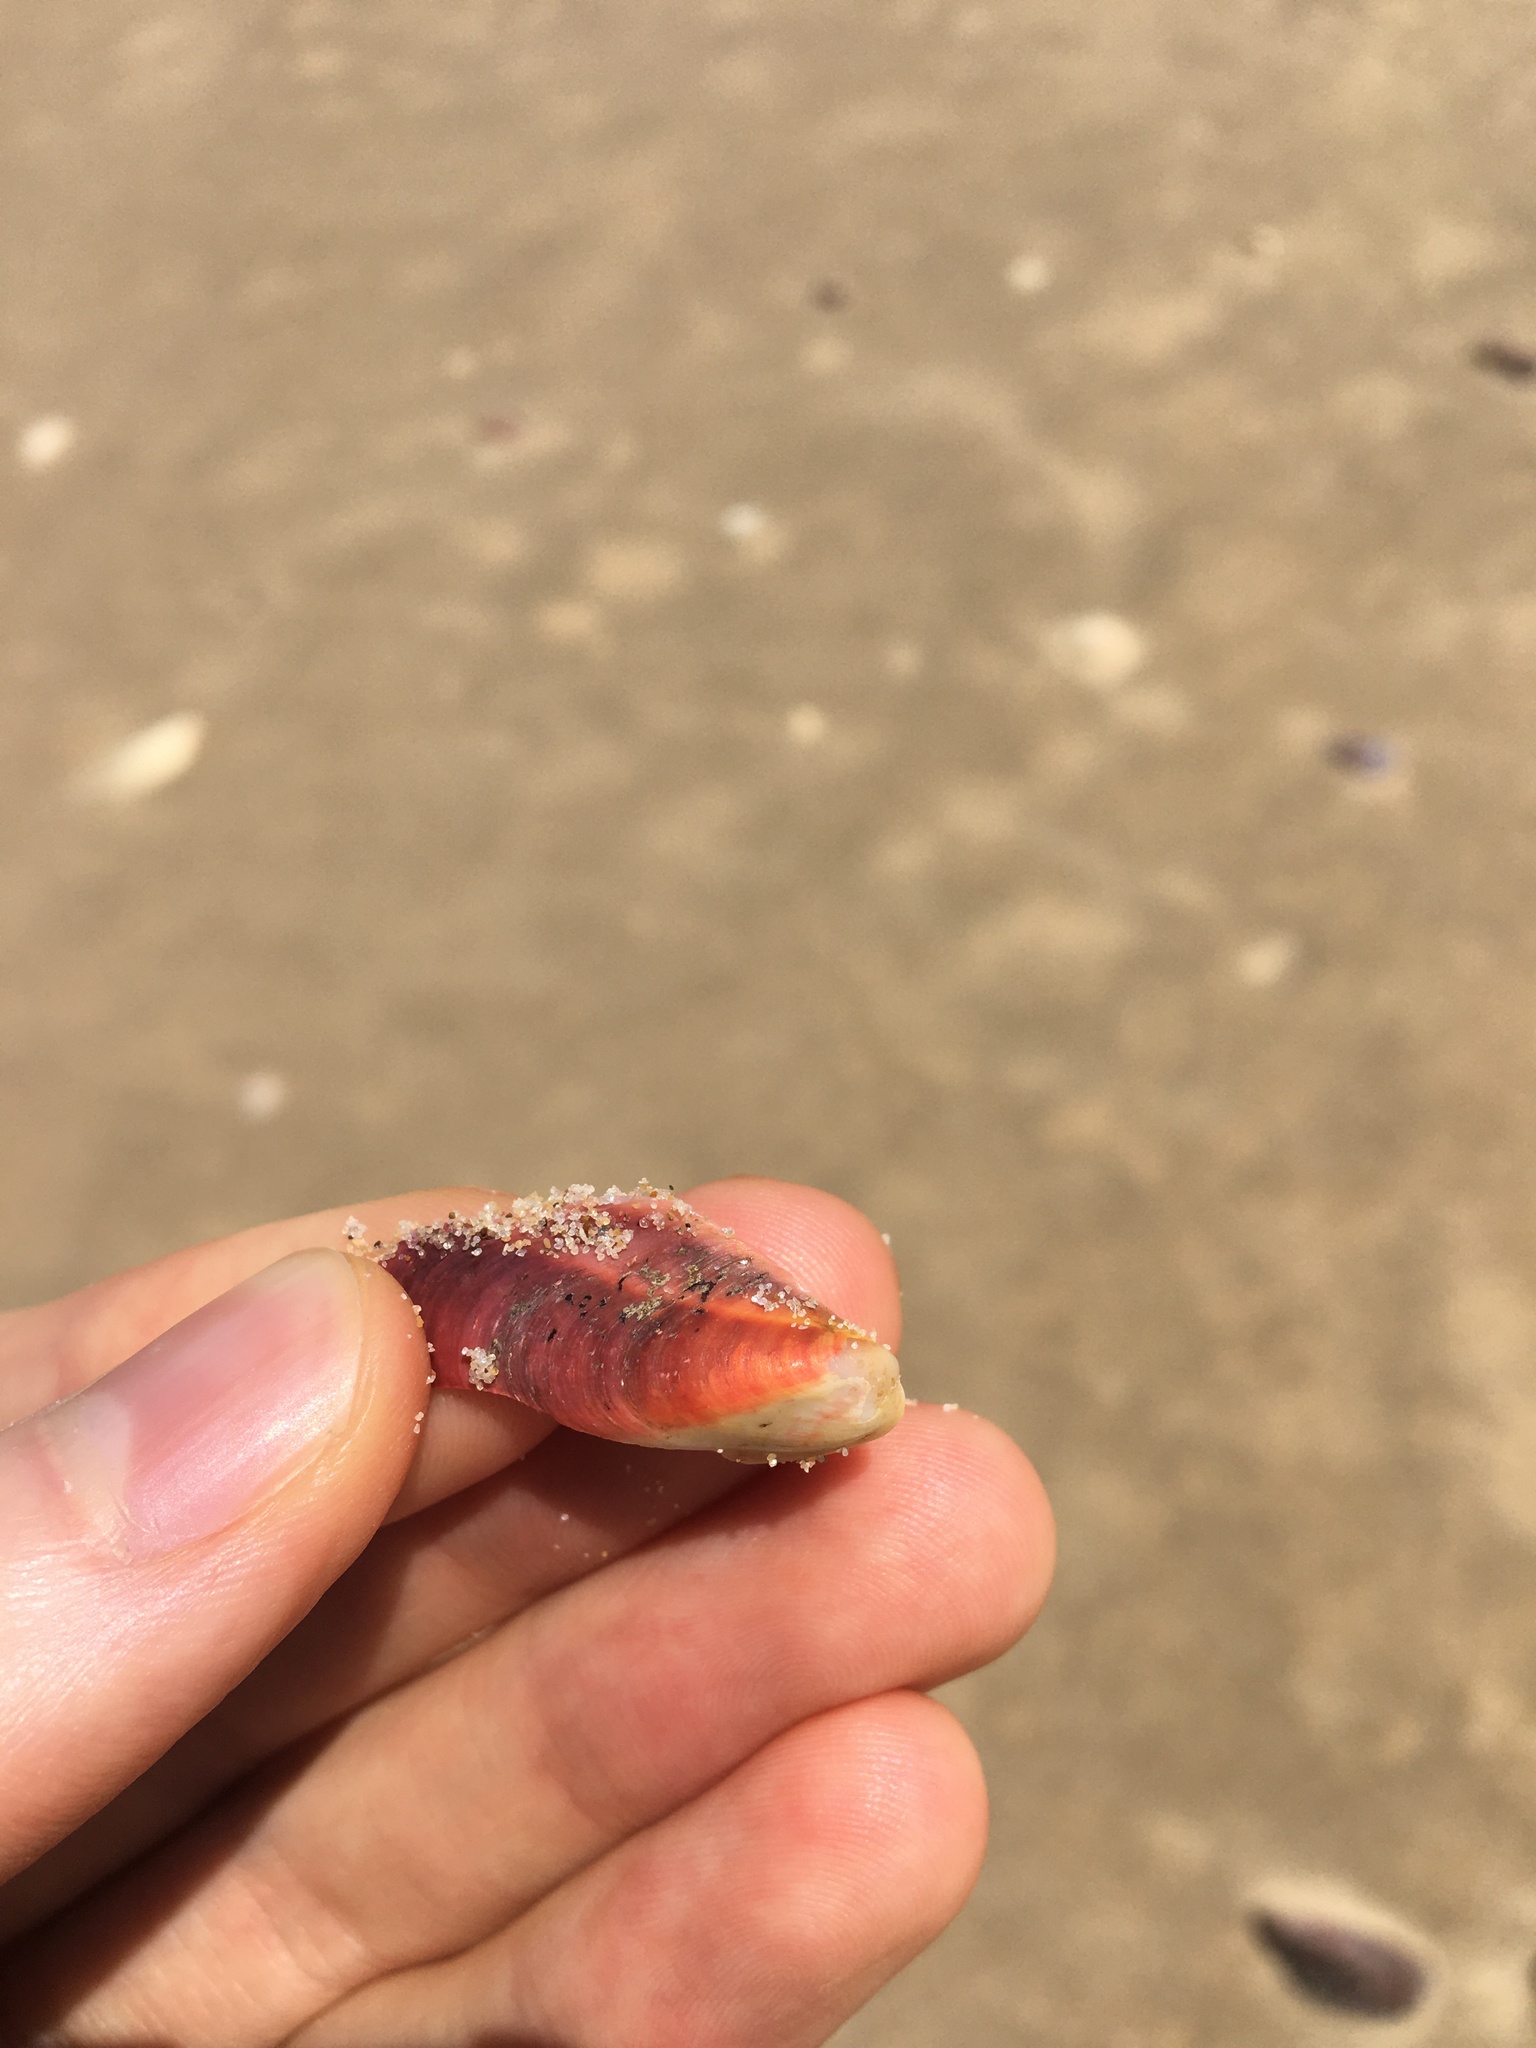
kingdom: Animalia
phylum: Mollusca
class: Bivalvia
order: Mytilida
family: Mytilidae
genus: Modiolus
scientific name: Modiolus areolatus
